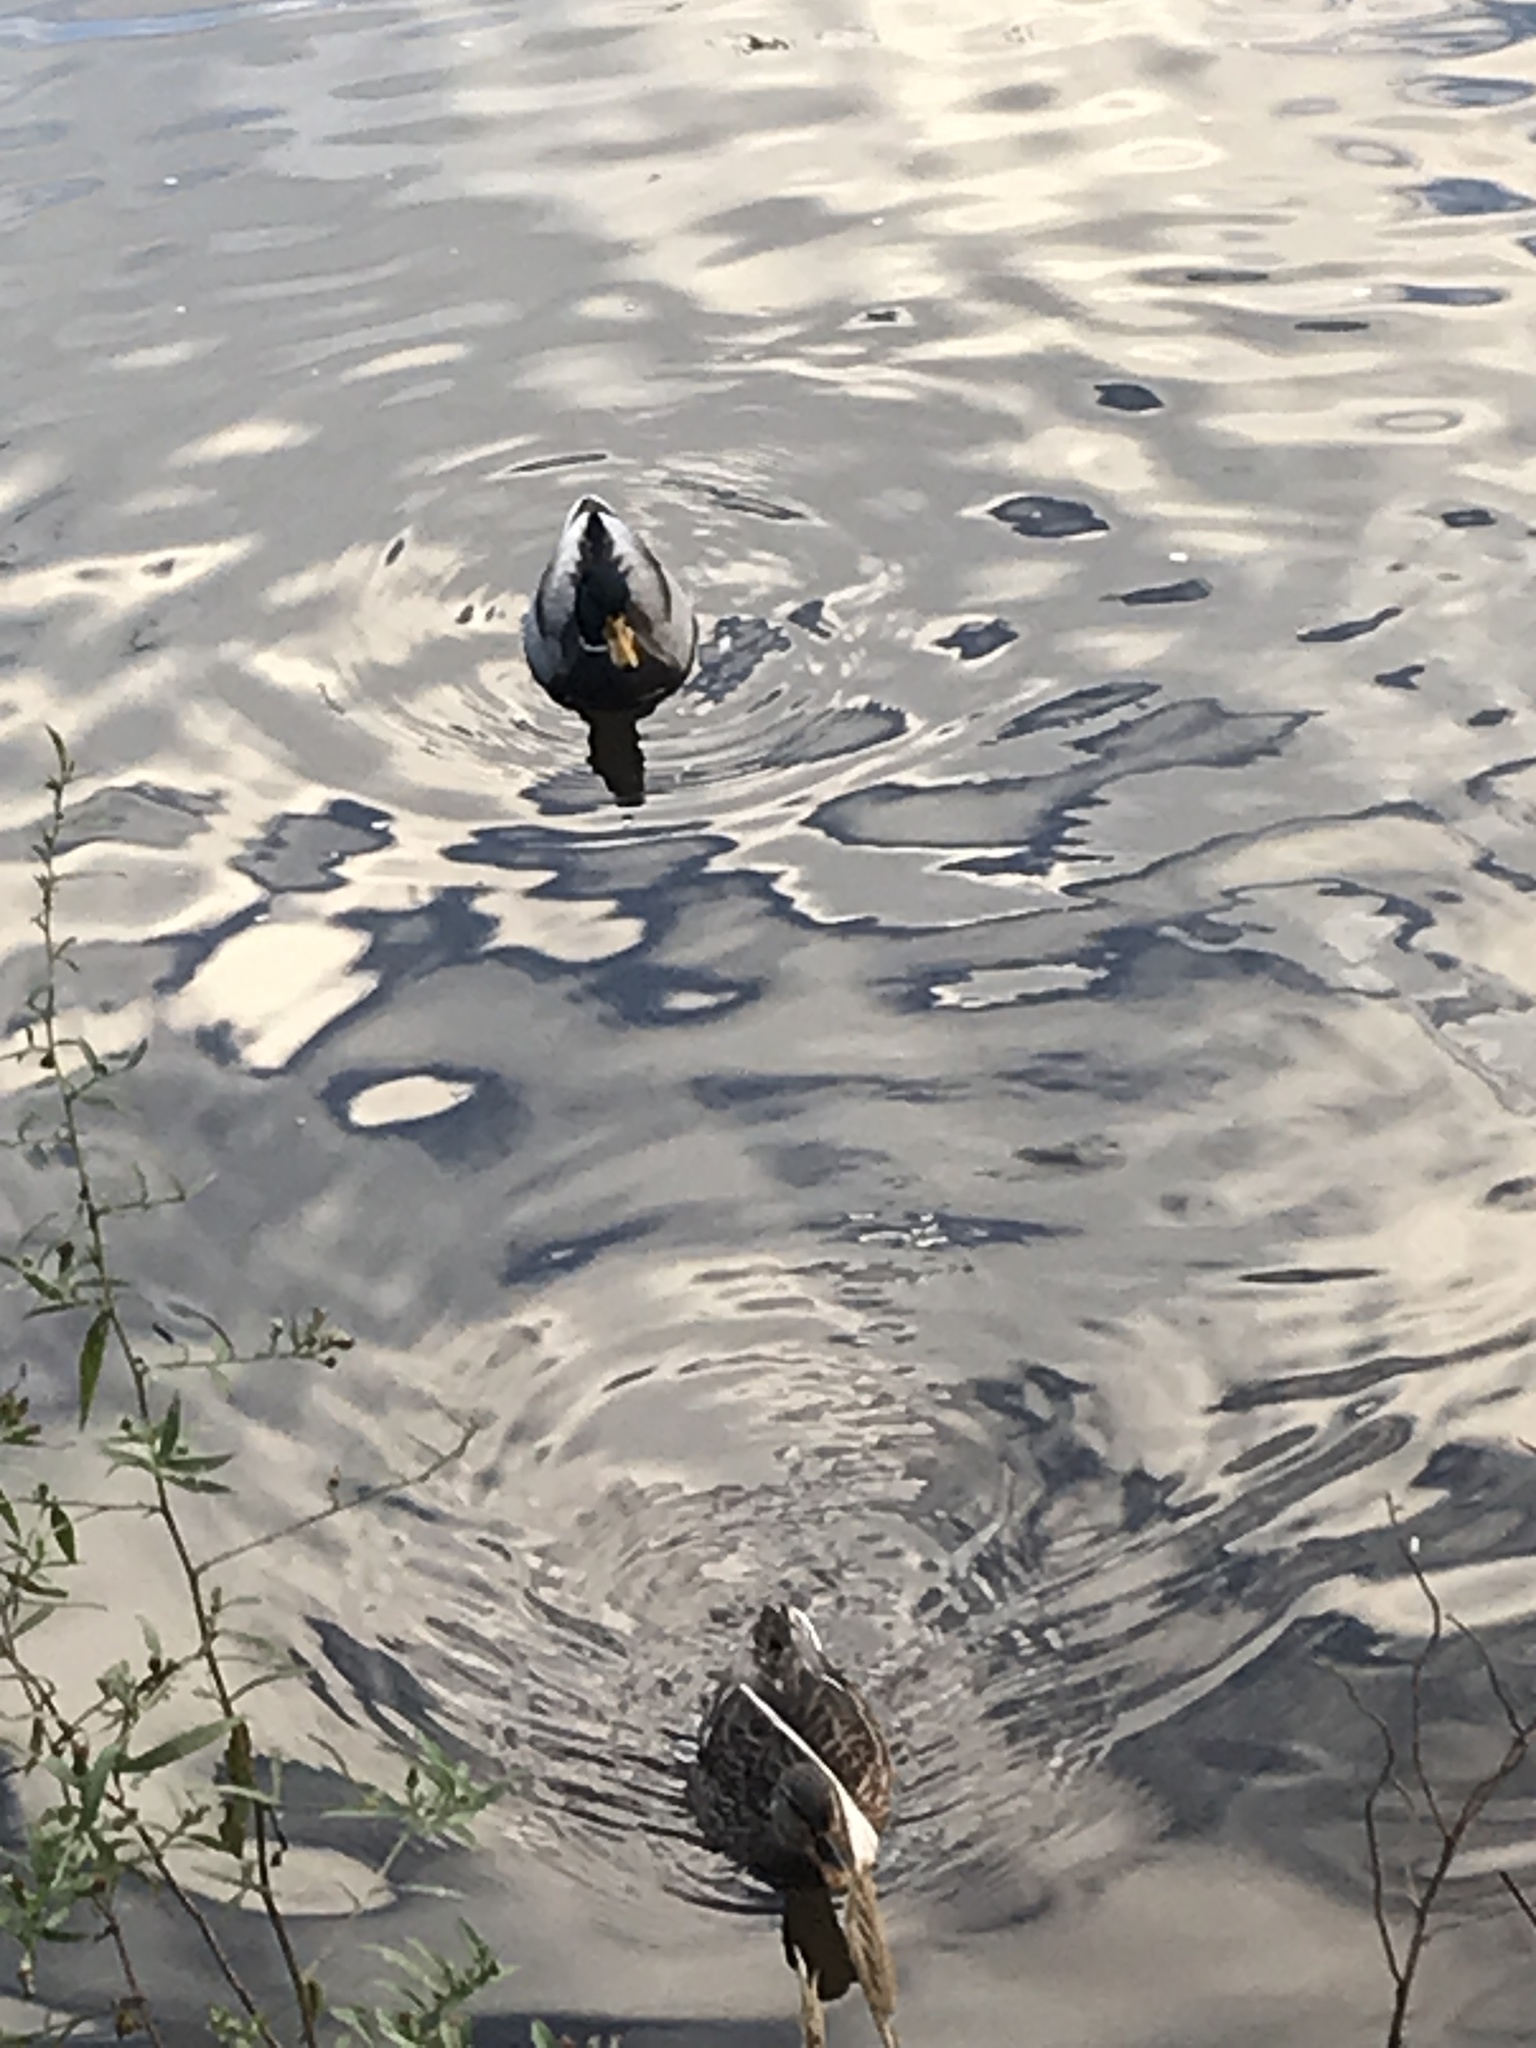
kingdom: Animalia
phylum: Chordata
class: Aves
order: Anseriformes
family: Anatidae
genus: Anas
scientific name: Anas platyrhynchos
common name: Mallard
